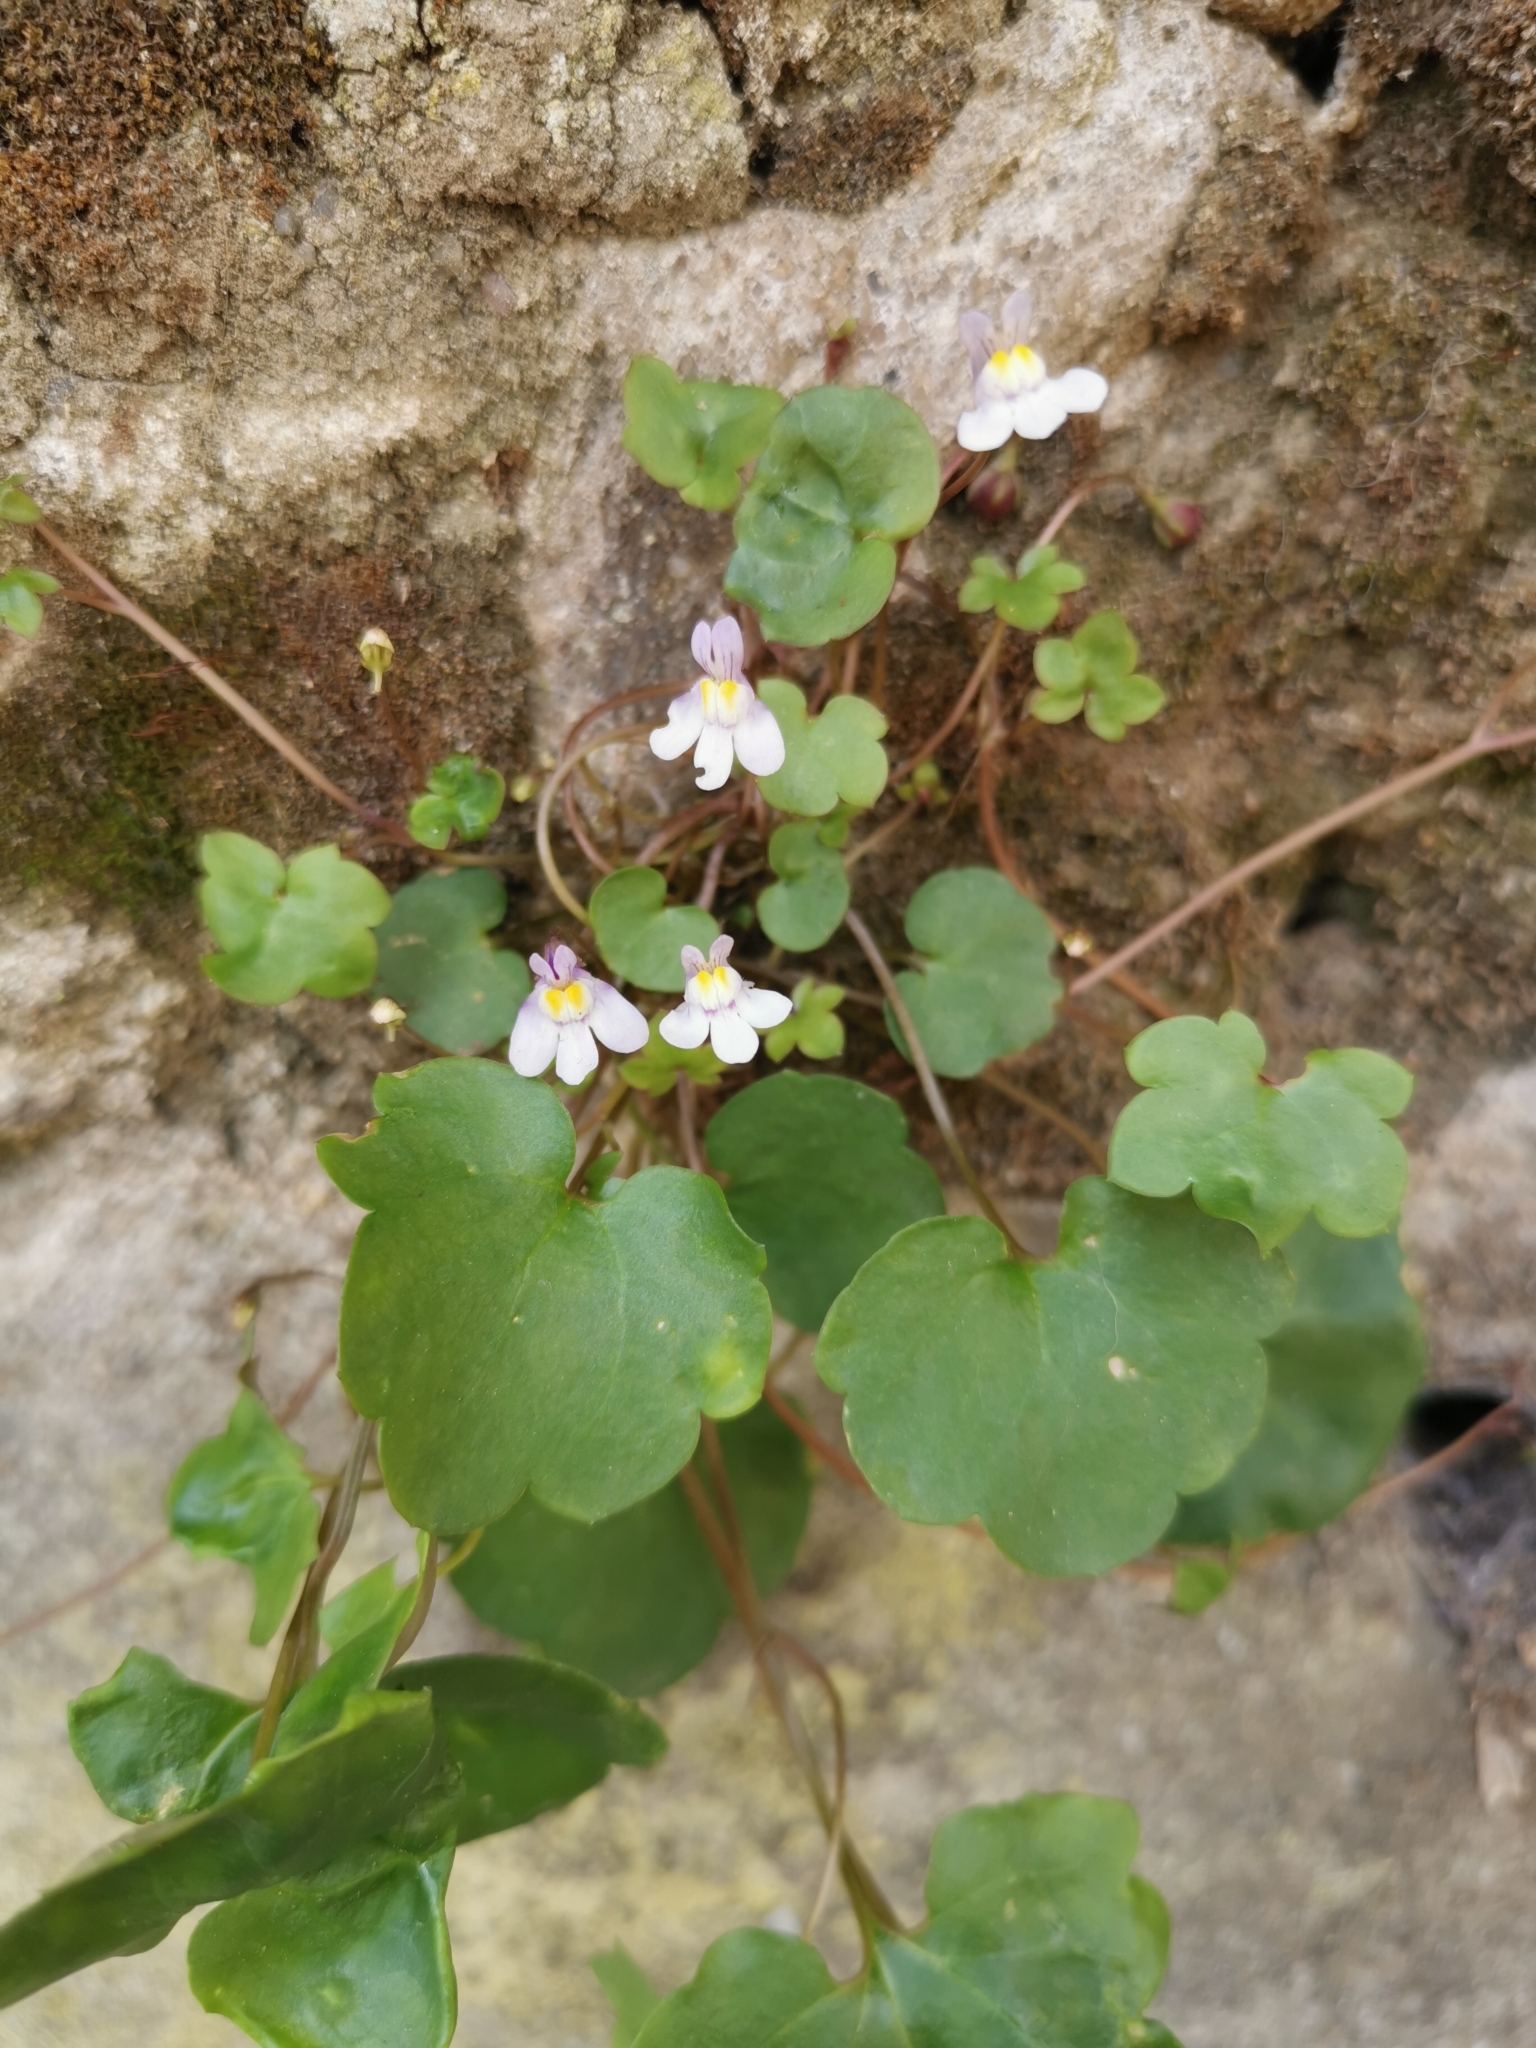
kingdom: Plantae
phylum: Tracheophyta
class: Magnoliopsida
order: Lamiales
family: Plantaginaceae
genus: Cymbalaria
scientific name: Cymbalaria muralis
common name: Ivy-leaved toadflax
